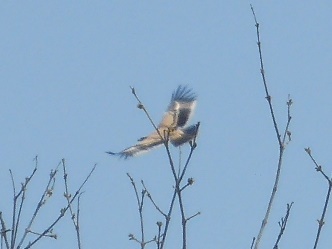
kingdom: Animalia
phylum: Chordata
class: Aves
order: Accipitriformes
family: Accipitridae
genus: Aquila
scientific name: Aquila rapax
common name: Tawny eagle
